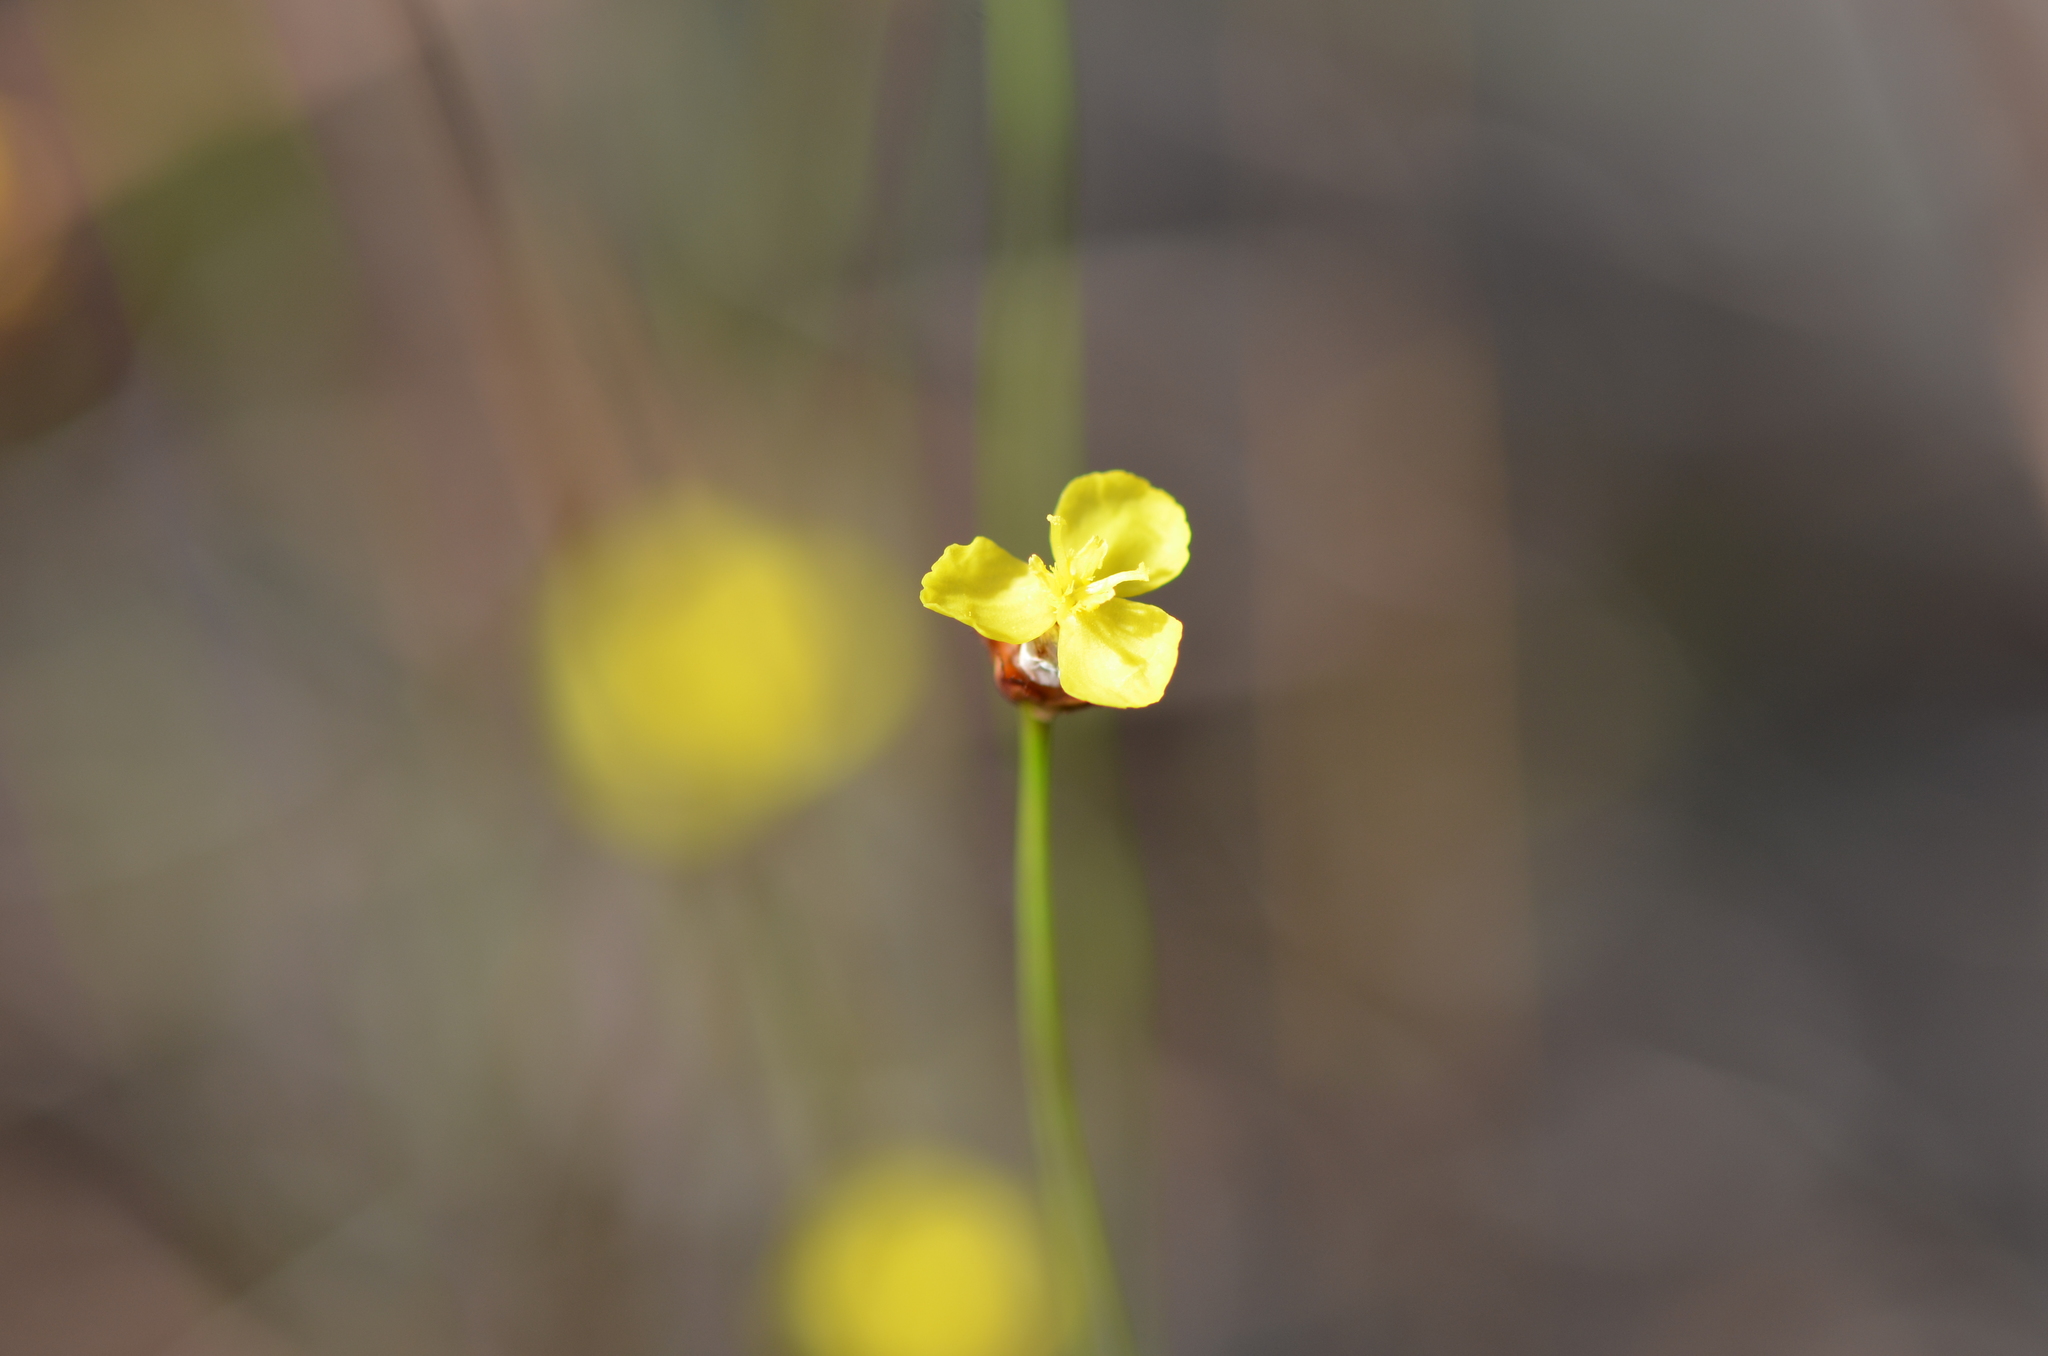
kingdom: Plantae
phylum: Tracheophyta
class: Liliopsida
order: Poales
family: Xyridaceae
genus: Xyris
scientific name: Xyris brevifolia
